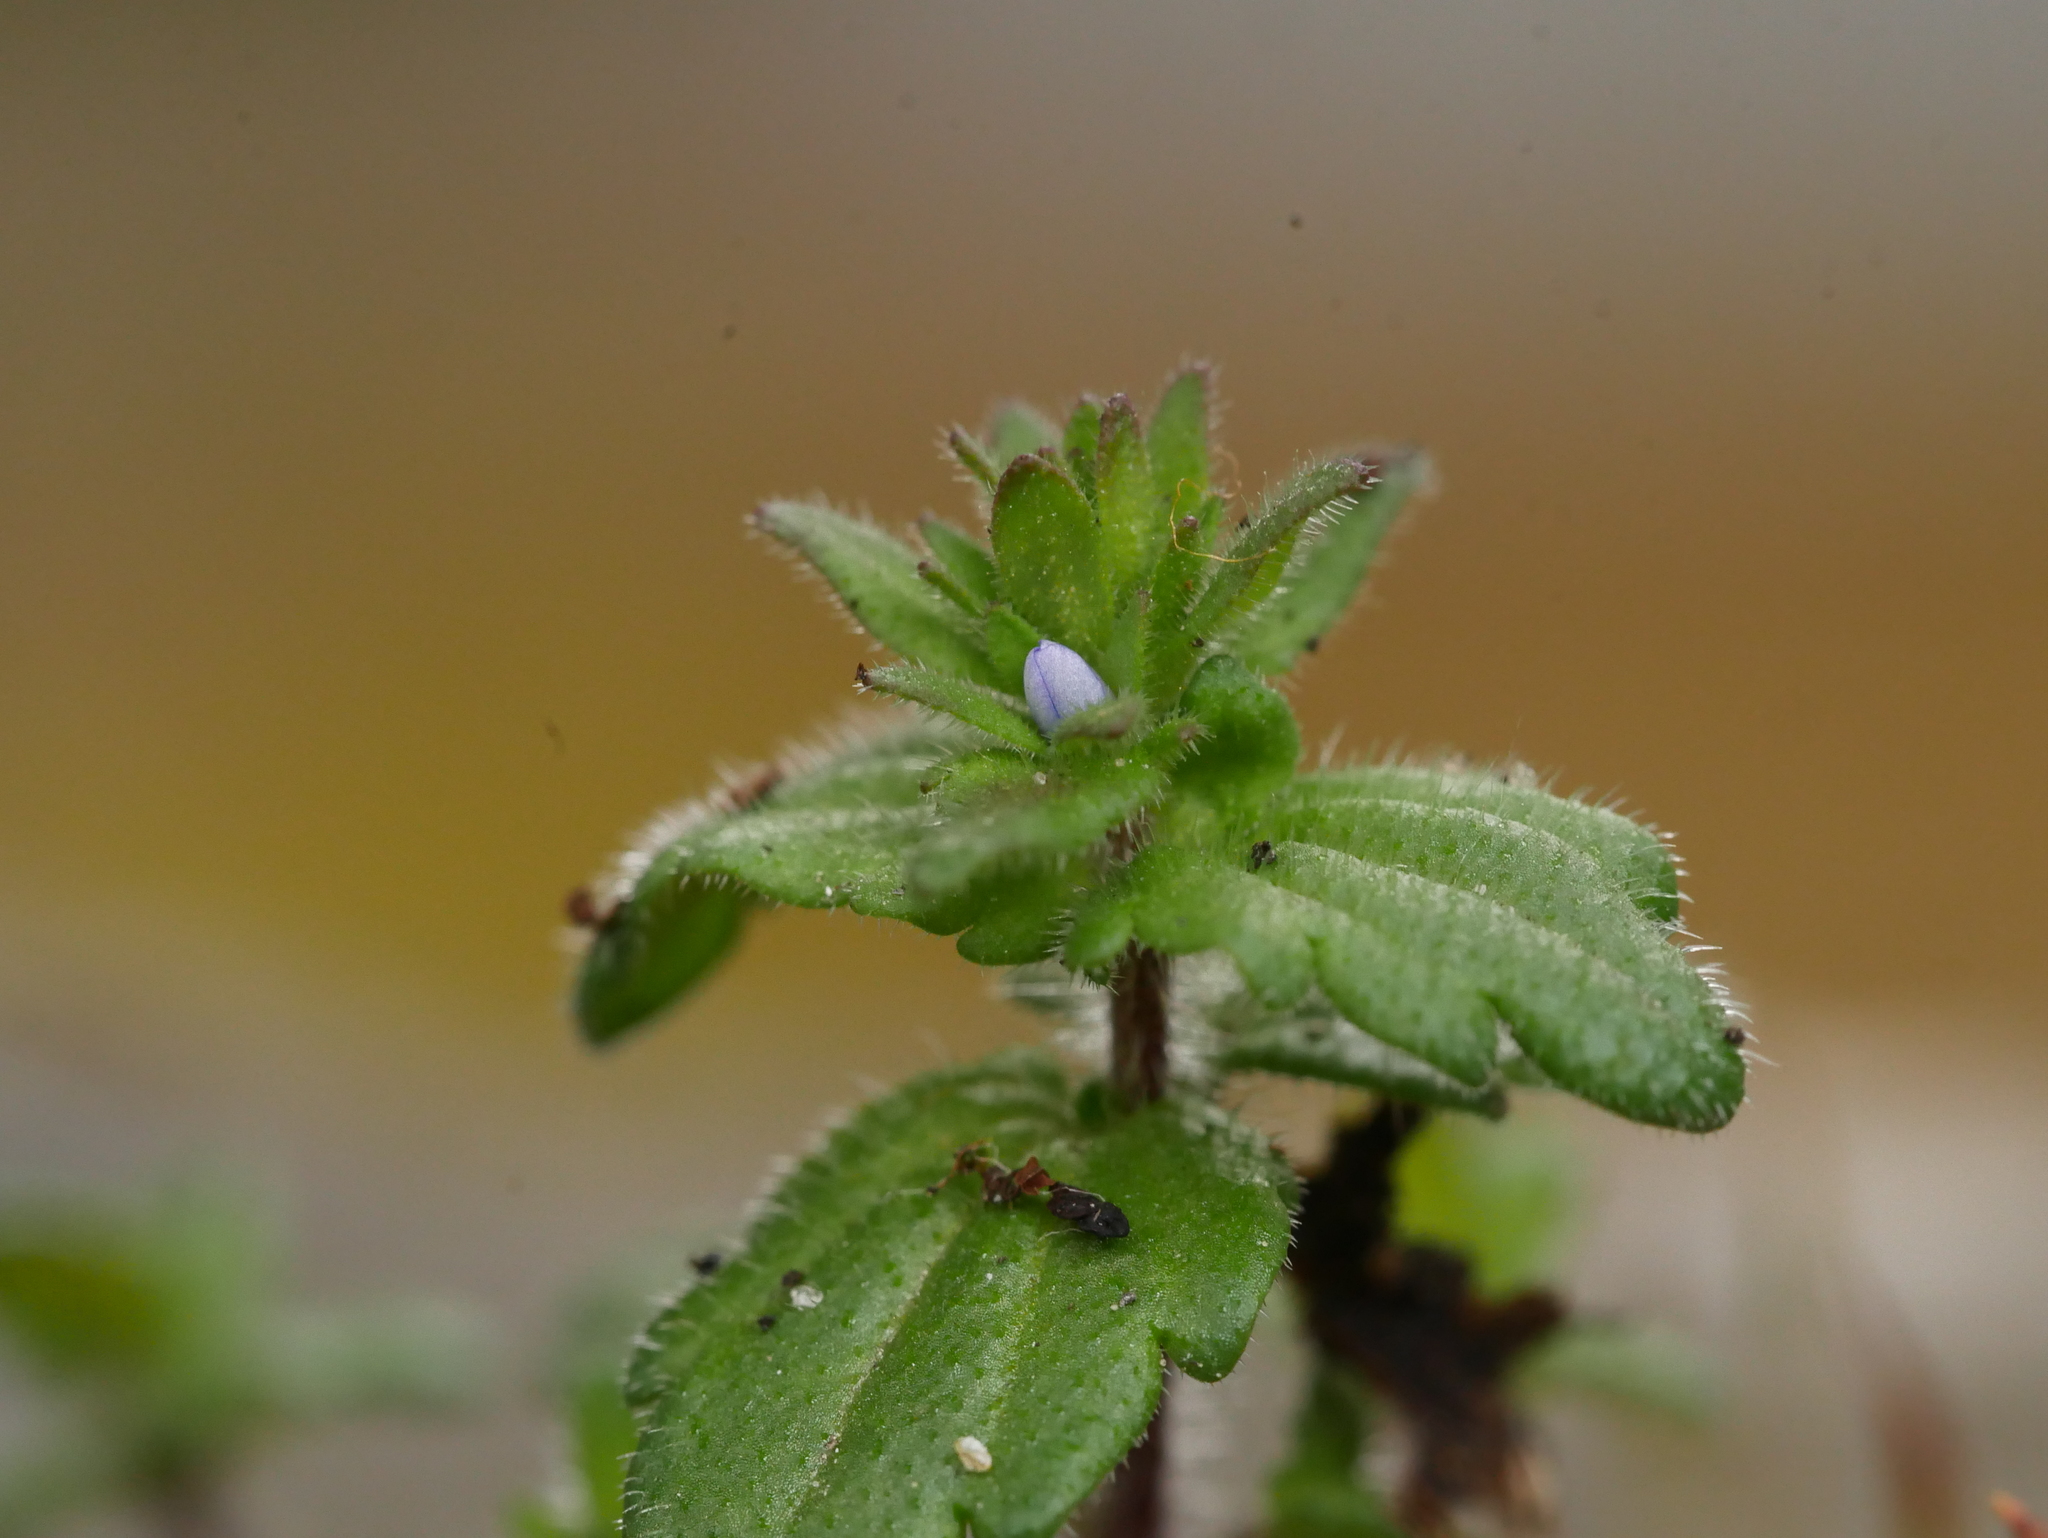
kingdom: Plantae
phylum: Tracheophyta
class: Magnoliopsida
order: Lamiales
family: Plantaginaceae
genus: Veronica
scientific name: Veronica arvensis
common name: Corn speedwell
